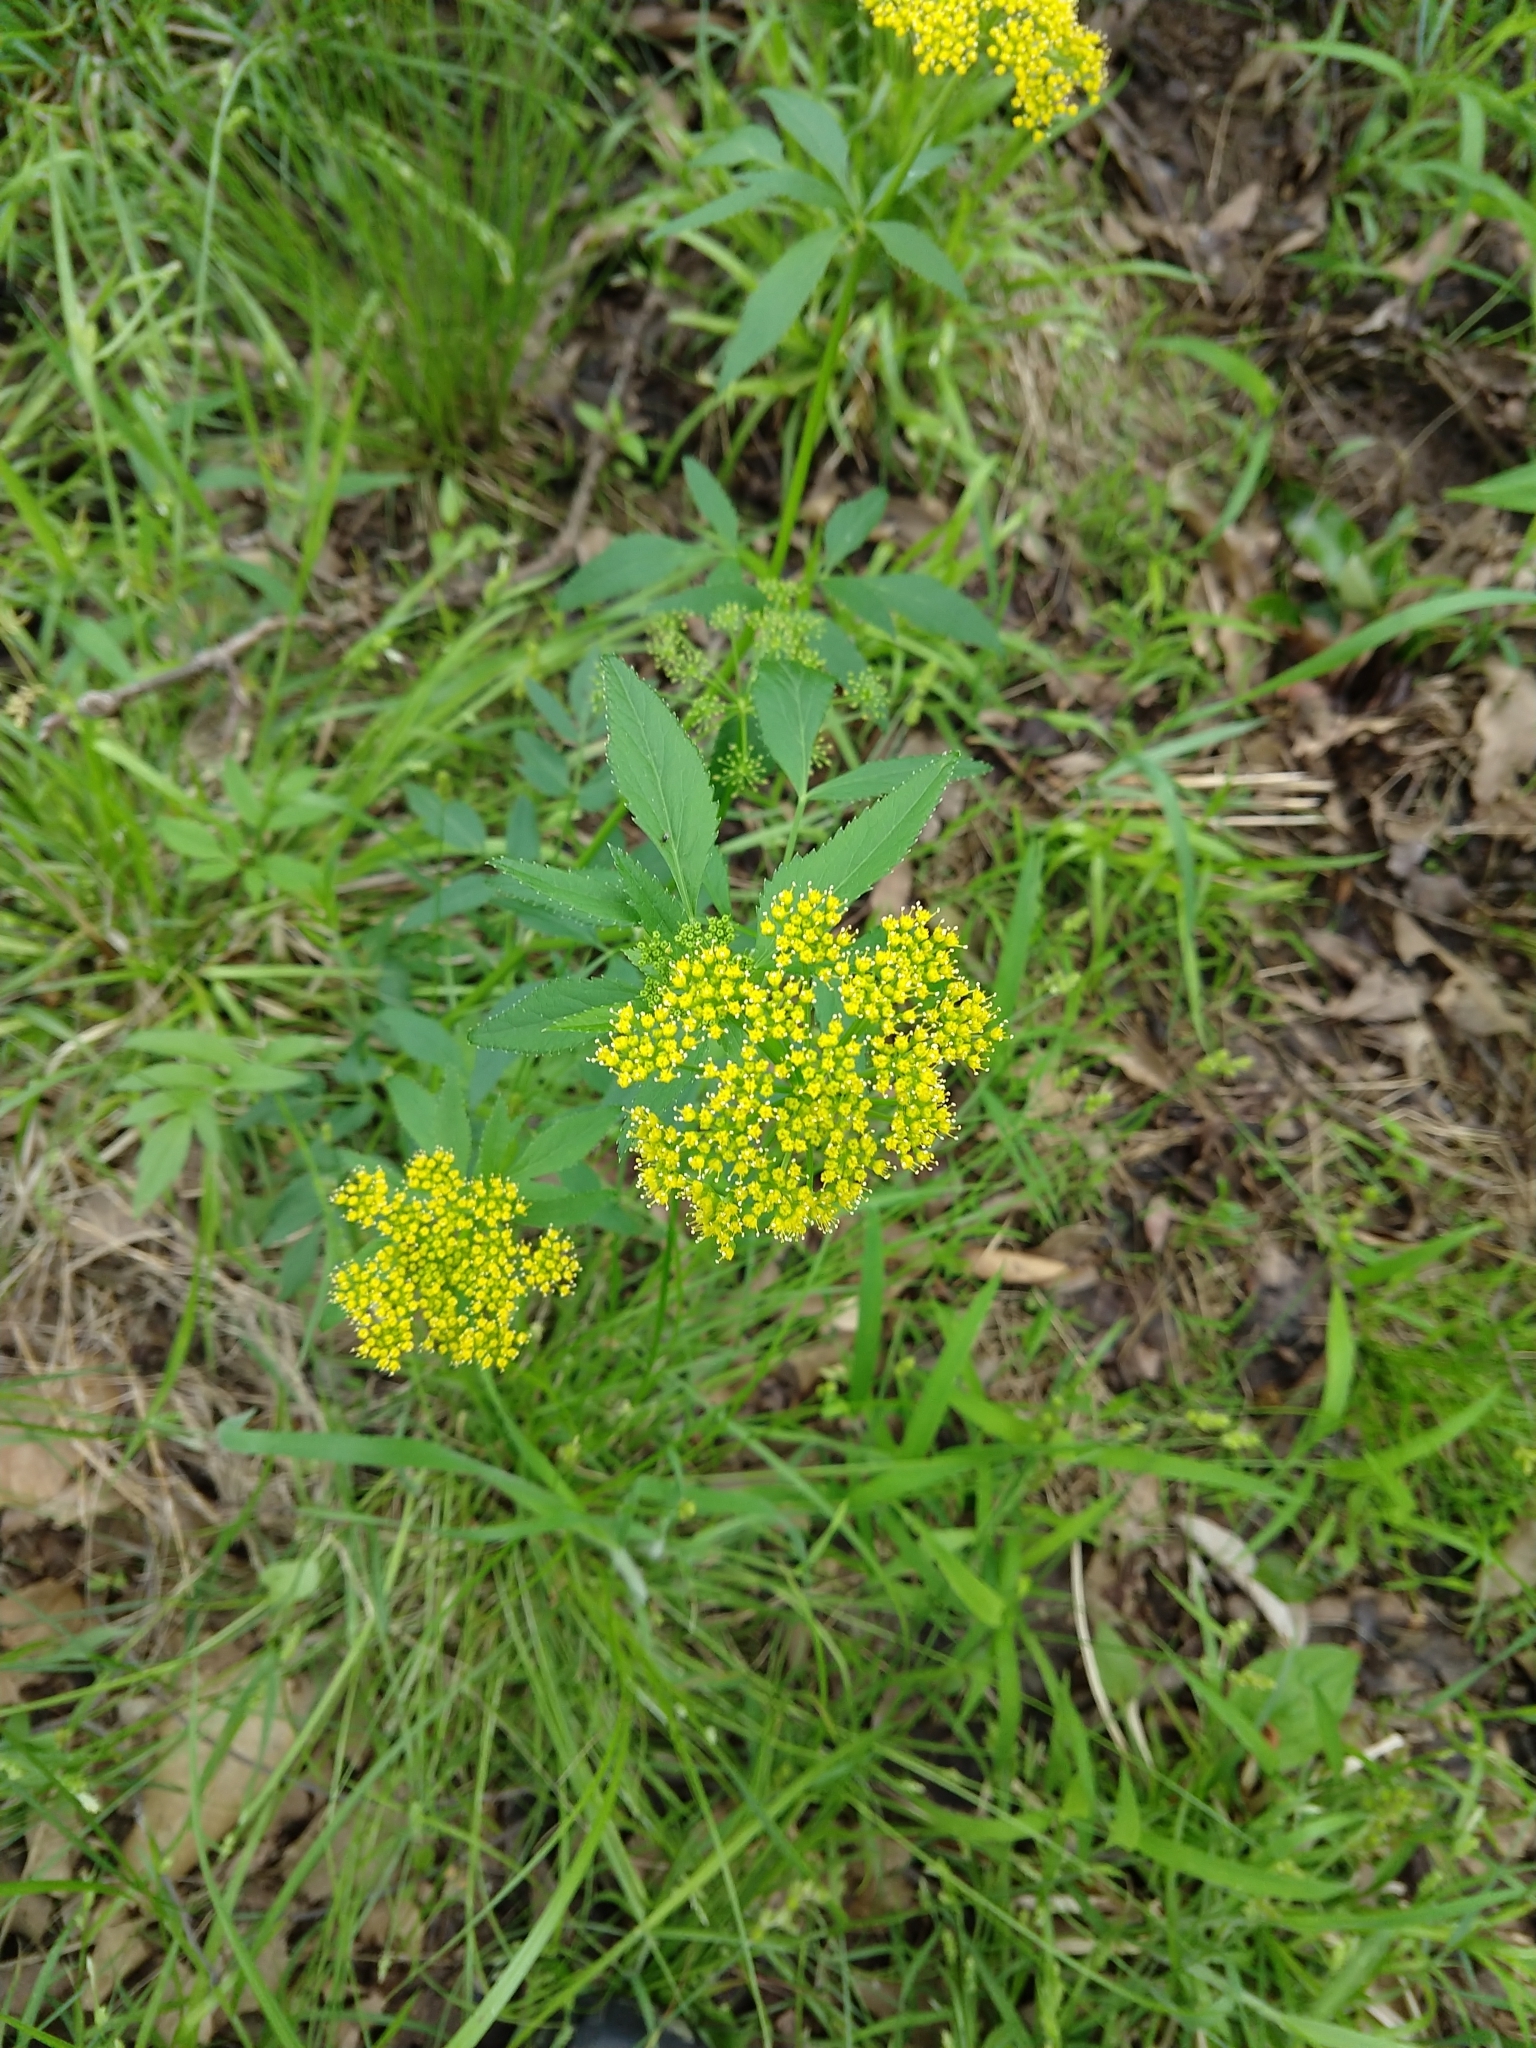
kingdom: Plantae
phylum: Tracheophyta
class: Magnoliopsida
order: Apiales
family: Apiaceae
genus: Zizia
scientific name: Zizia aurea
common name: Golden alexanders
